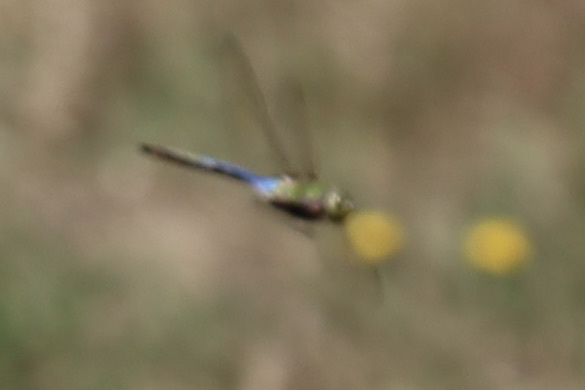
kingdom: Animalia
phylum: Arthropoda
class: Insecta
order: Odonata
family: Aeshnidae
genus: Anax
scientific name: Anax junius
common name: Common green darner
